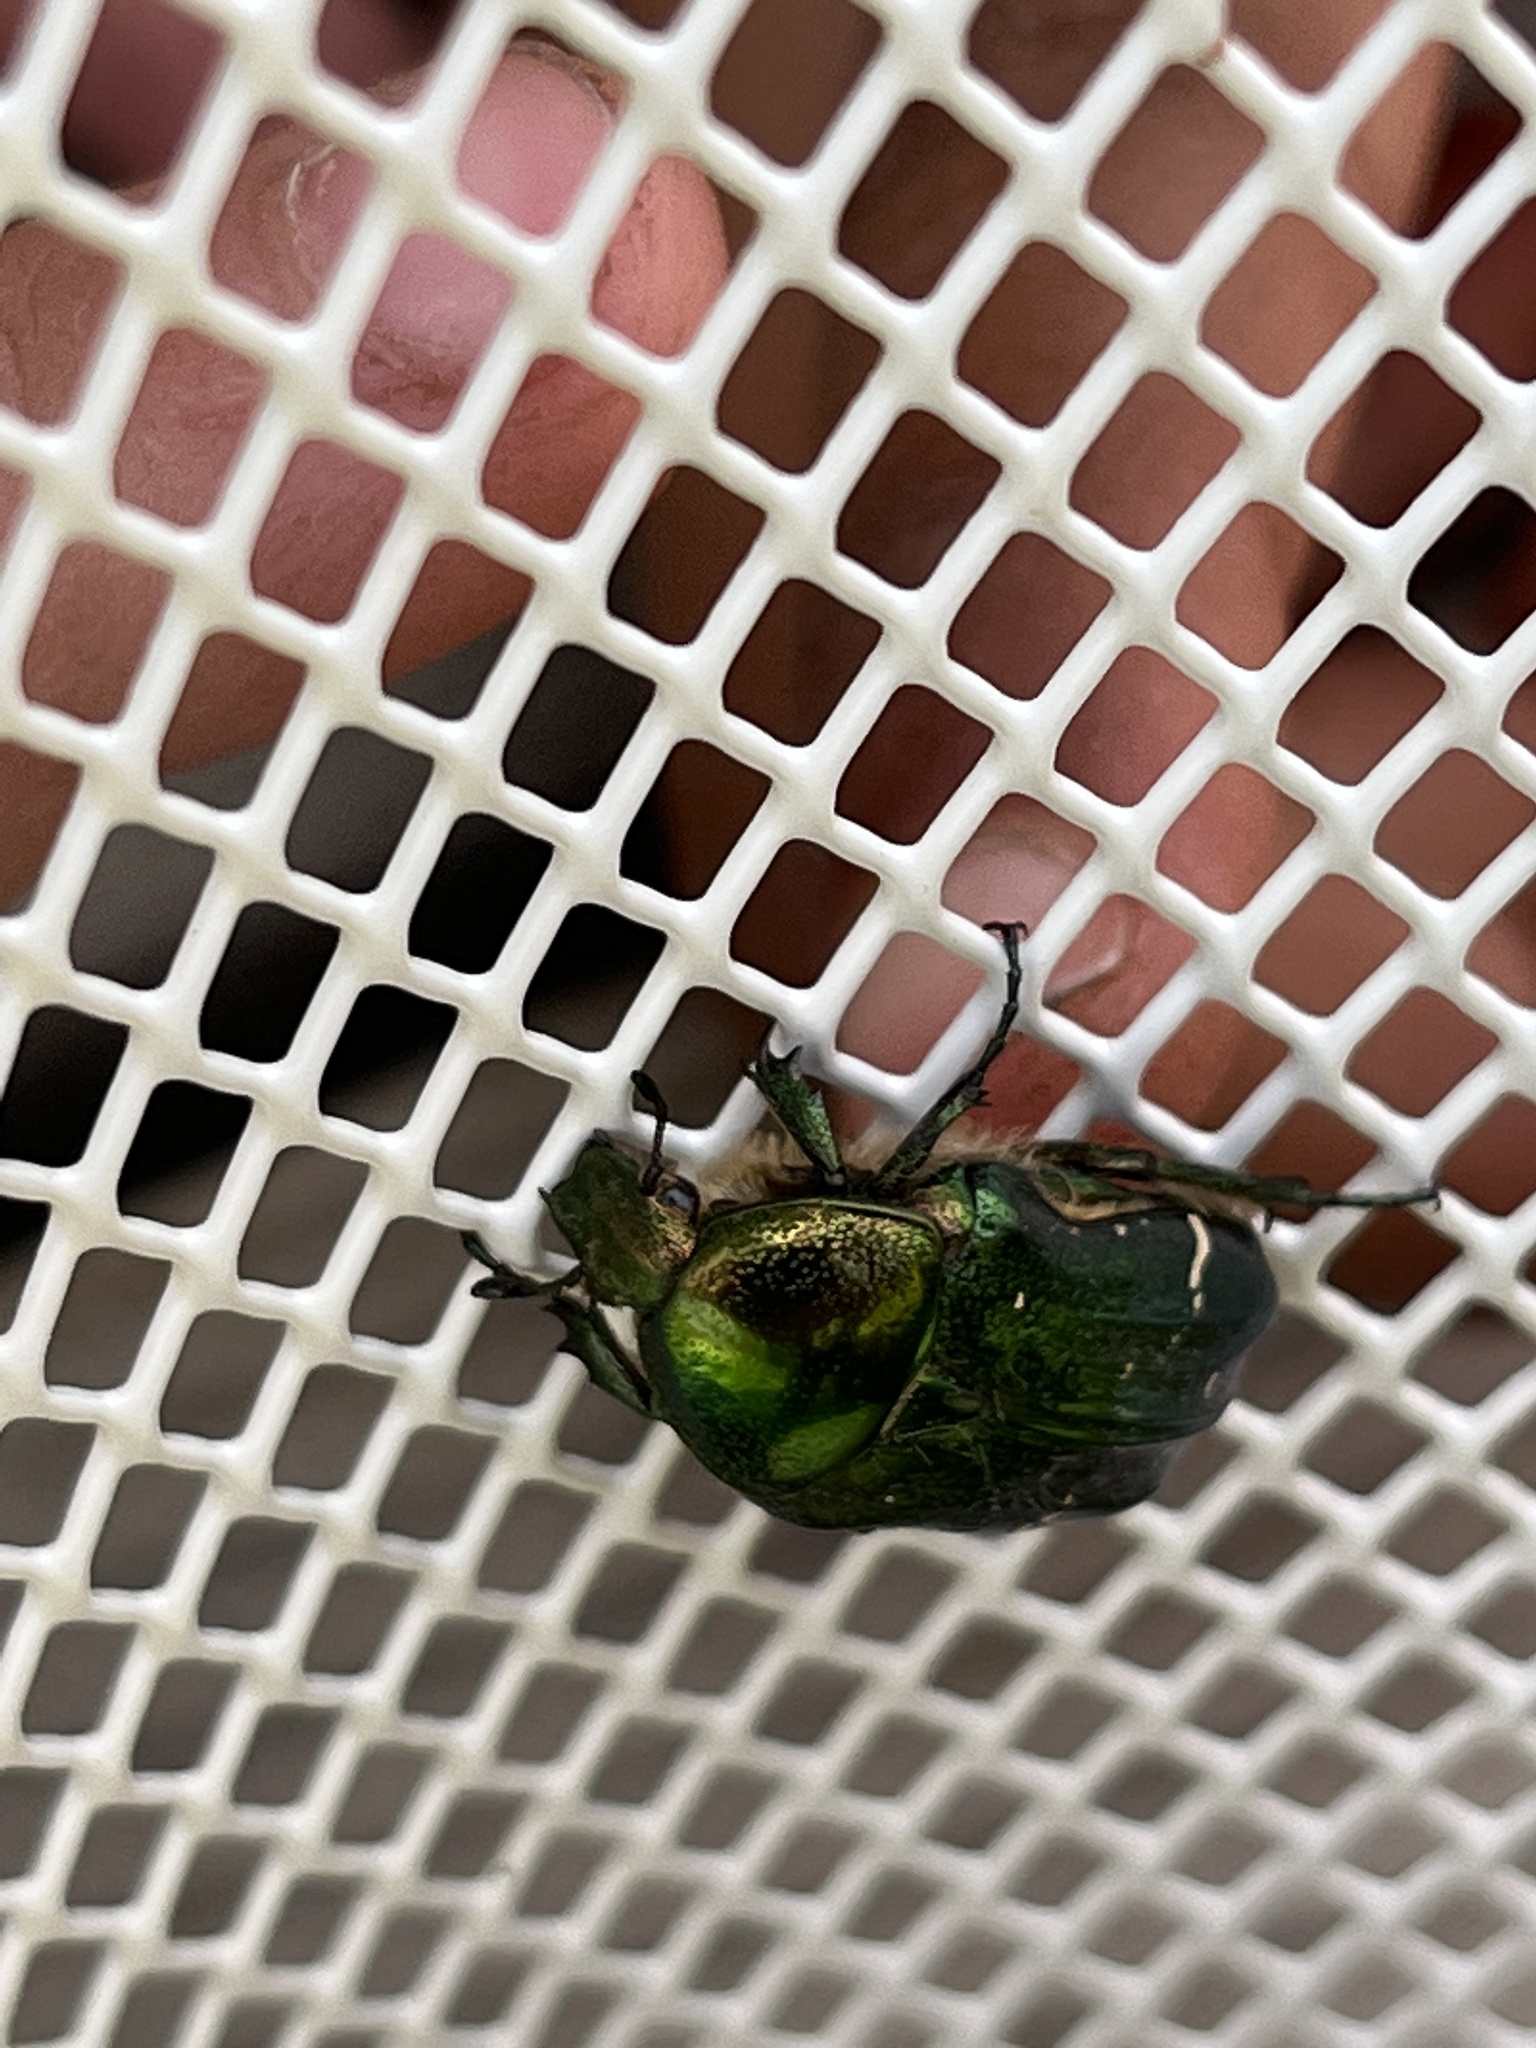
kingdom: Animalia
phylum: Arthropoda
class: Insecta
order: Coleoptera
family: Scarabaeidae
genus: Cetonia
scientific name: Cetonia aurata
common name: Rose chafer
